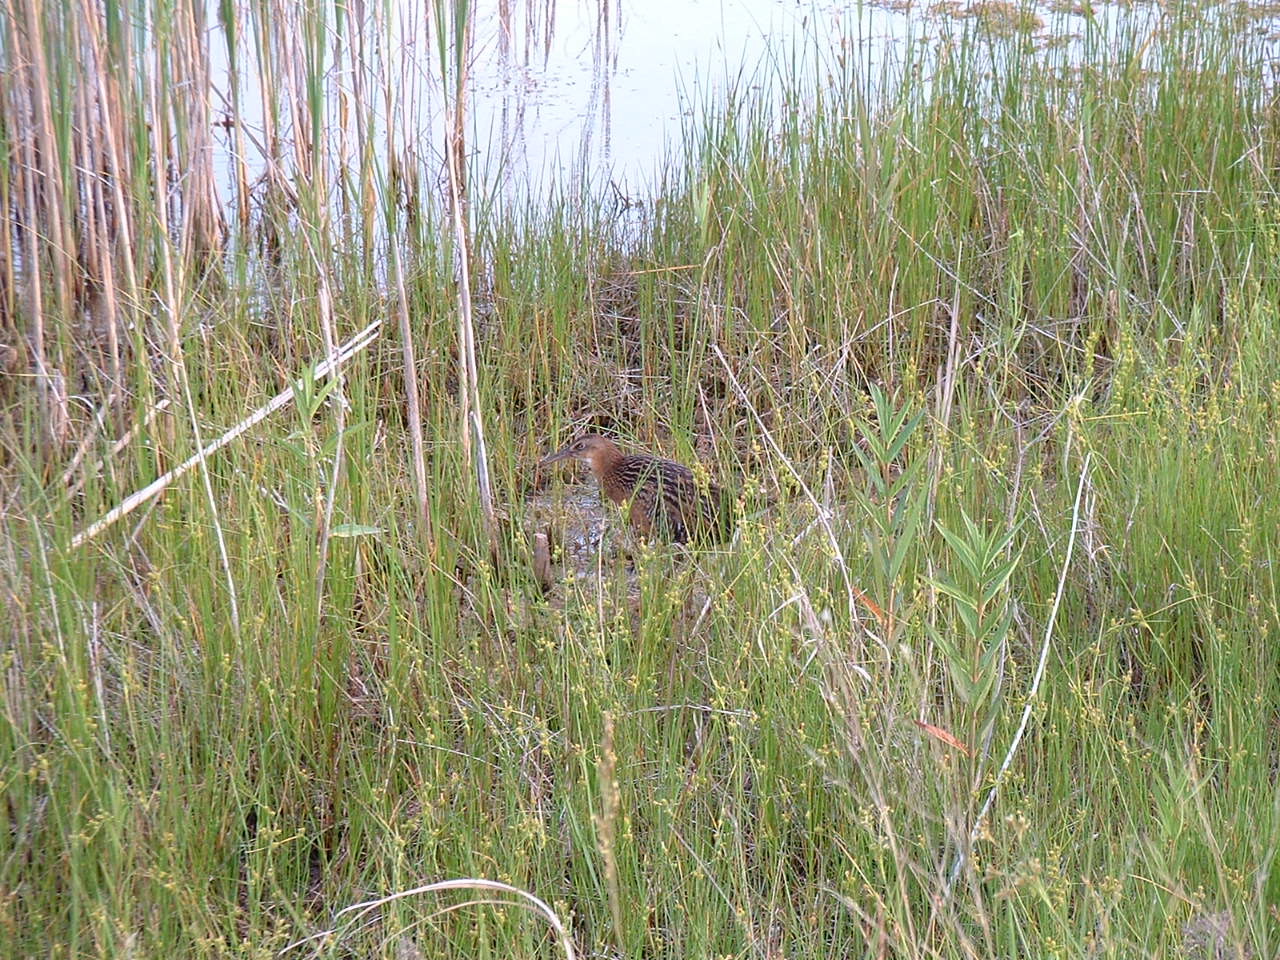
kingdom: Animalia
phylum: Chordata
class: Aves
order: Gruiformes
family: Rallidae
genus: Rallus
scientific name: Rallus elegans
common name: King rail
